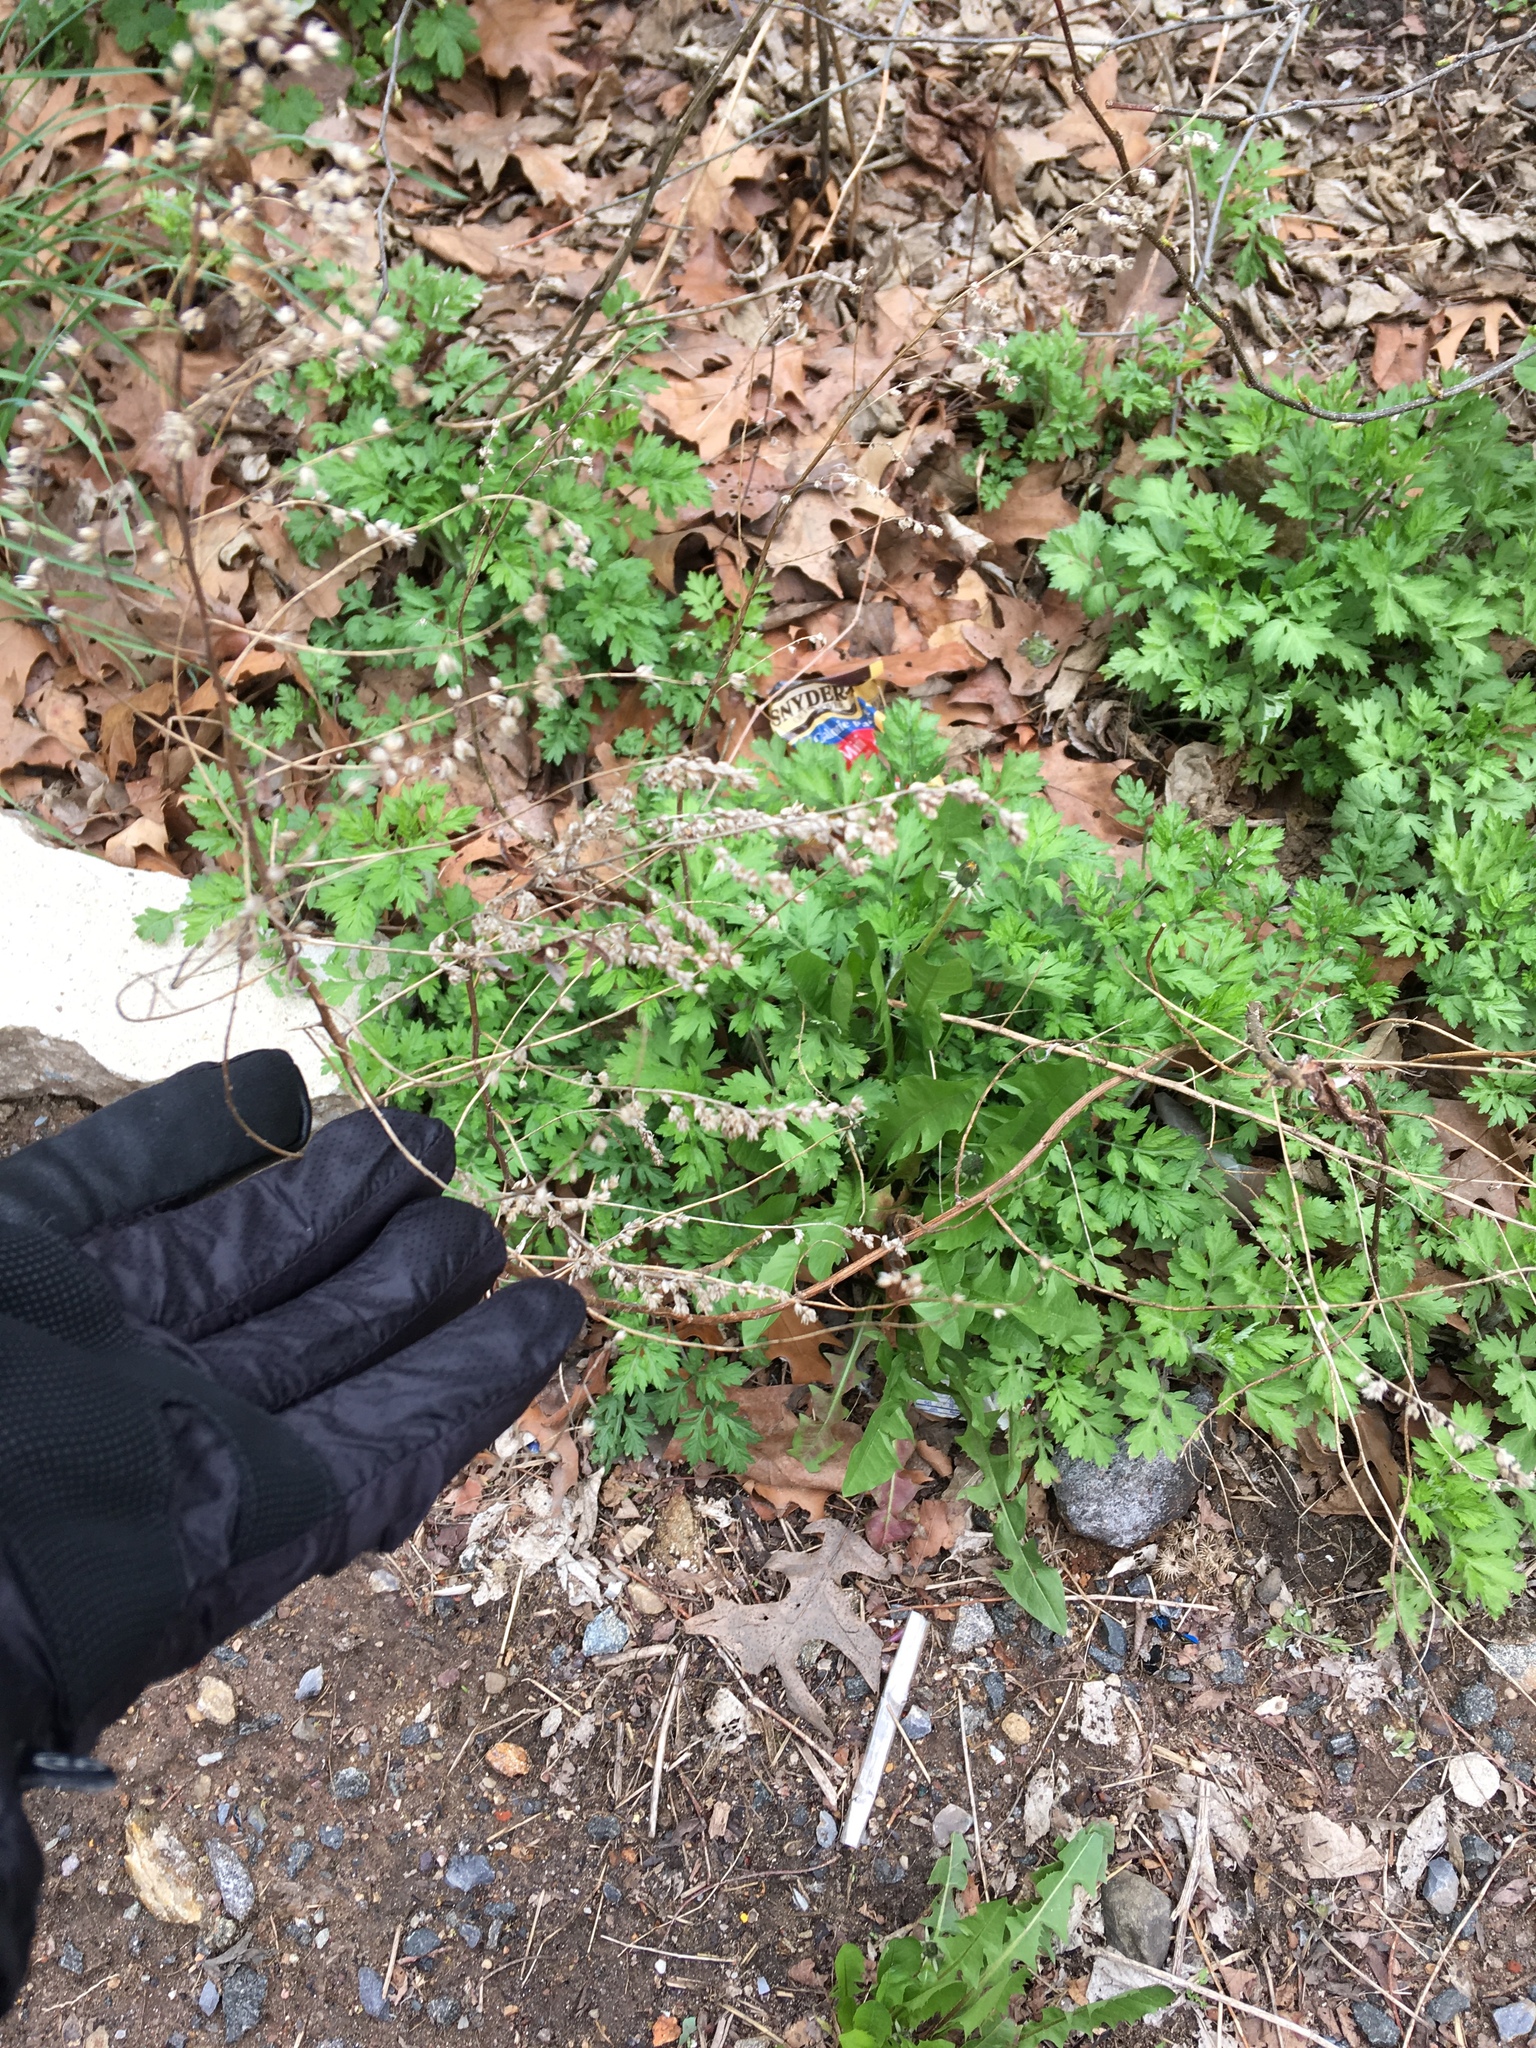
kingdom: Plantae
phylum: Tracheophyta
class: Magnoliopsida
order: Asterales
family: Asteraceae
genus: Artemisia
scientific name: Artemisia vulgaris
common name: Mugwort
